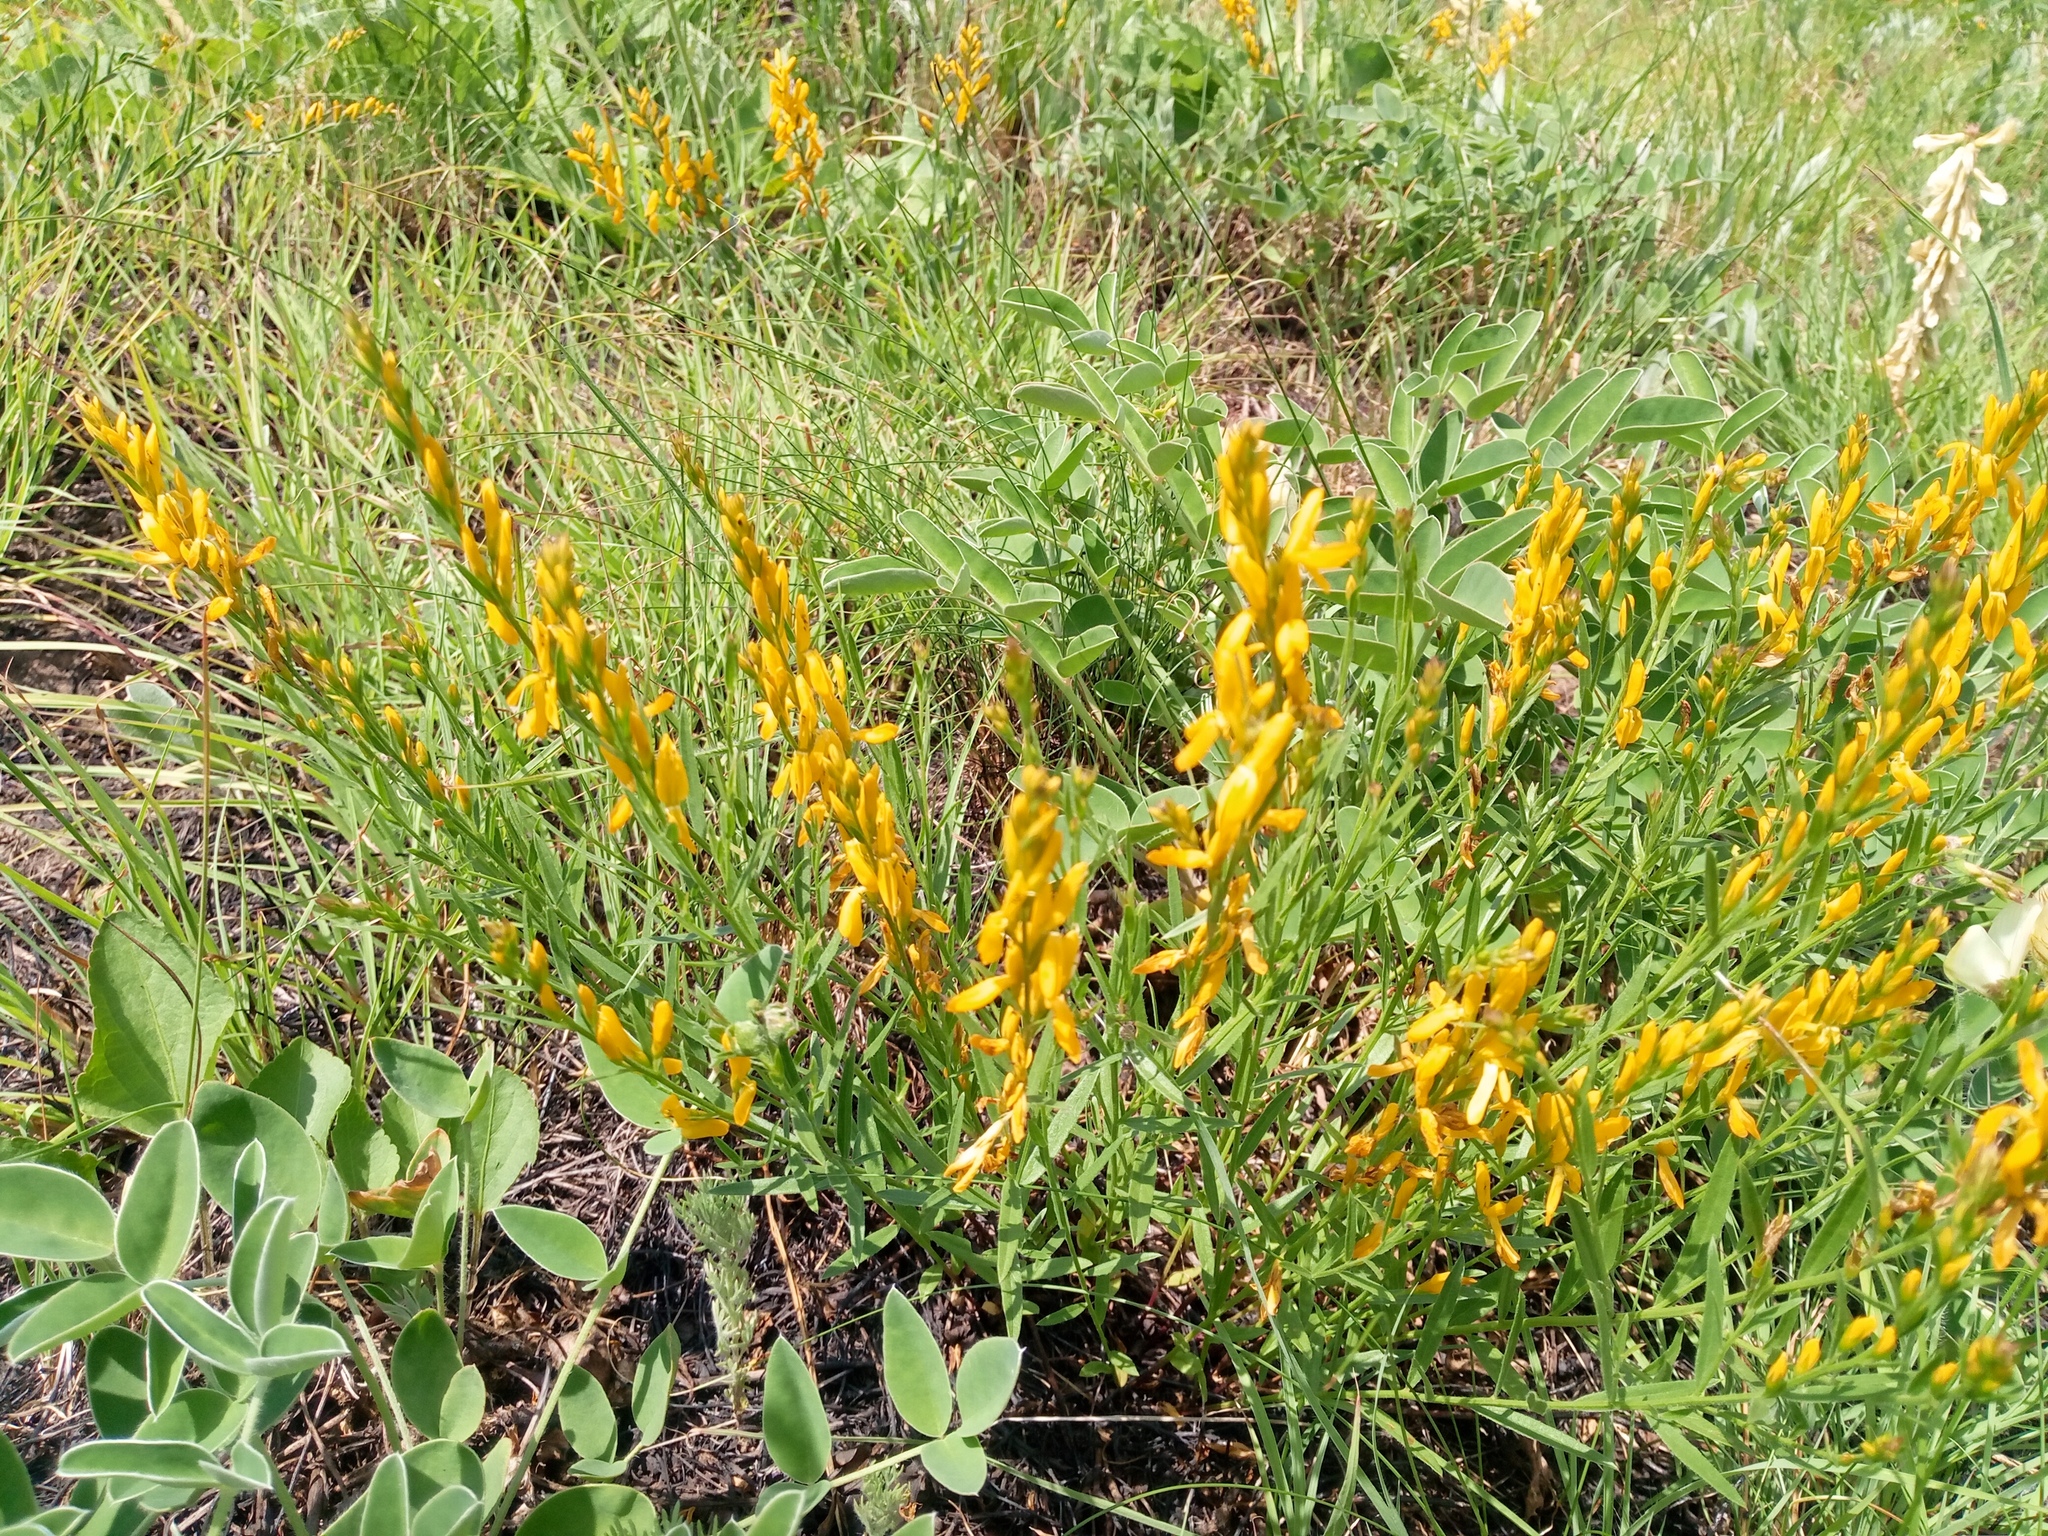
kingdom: Plantae
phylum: Tracheophyta
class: Magnoliopsida
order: Fabales
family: Fabaceae
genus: Genista
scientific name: Genista tinctoria
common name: Dyer's greenweed
